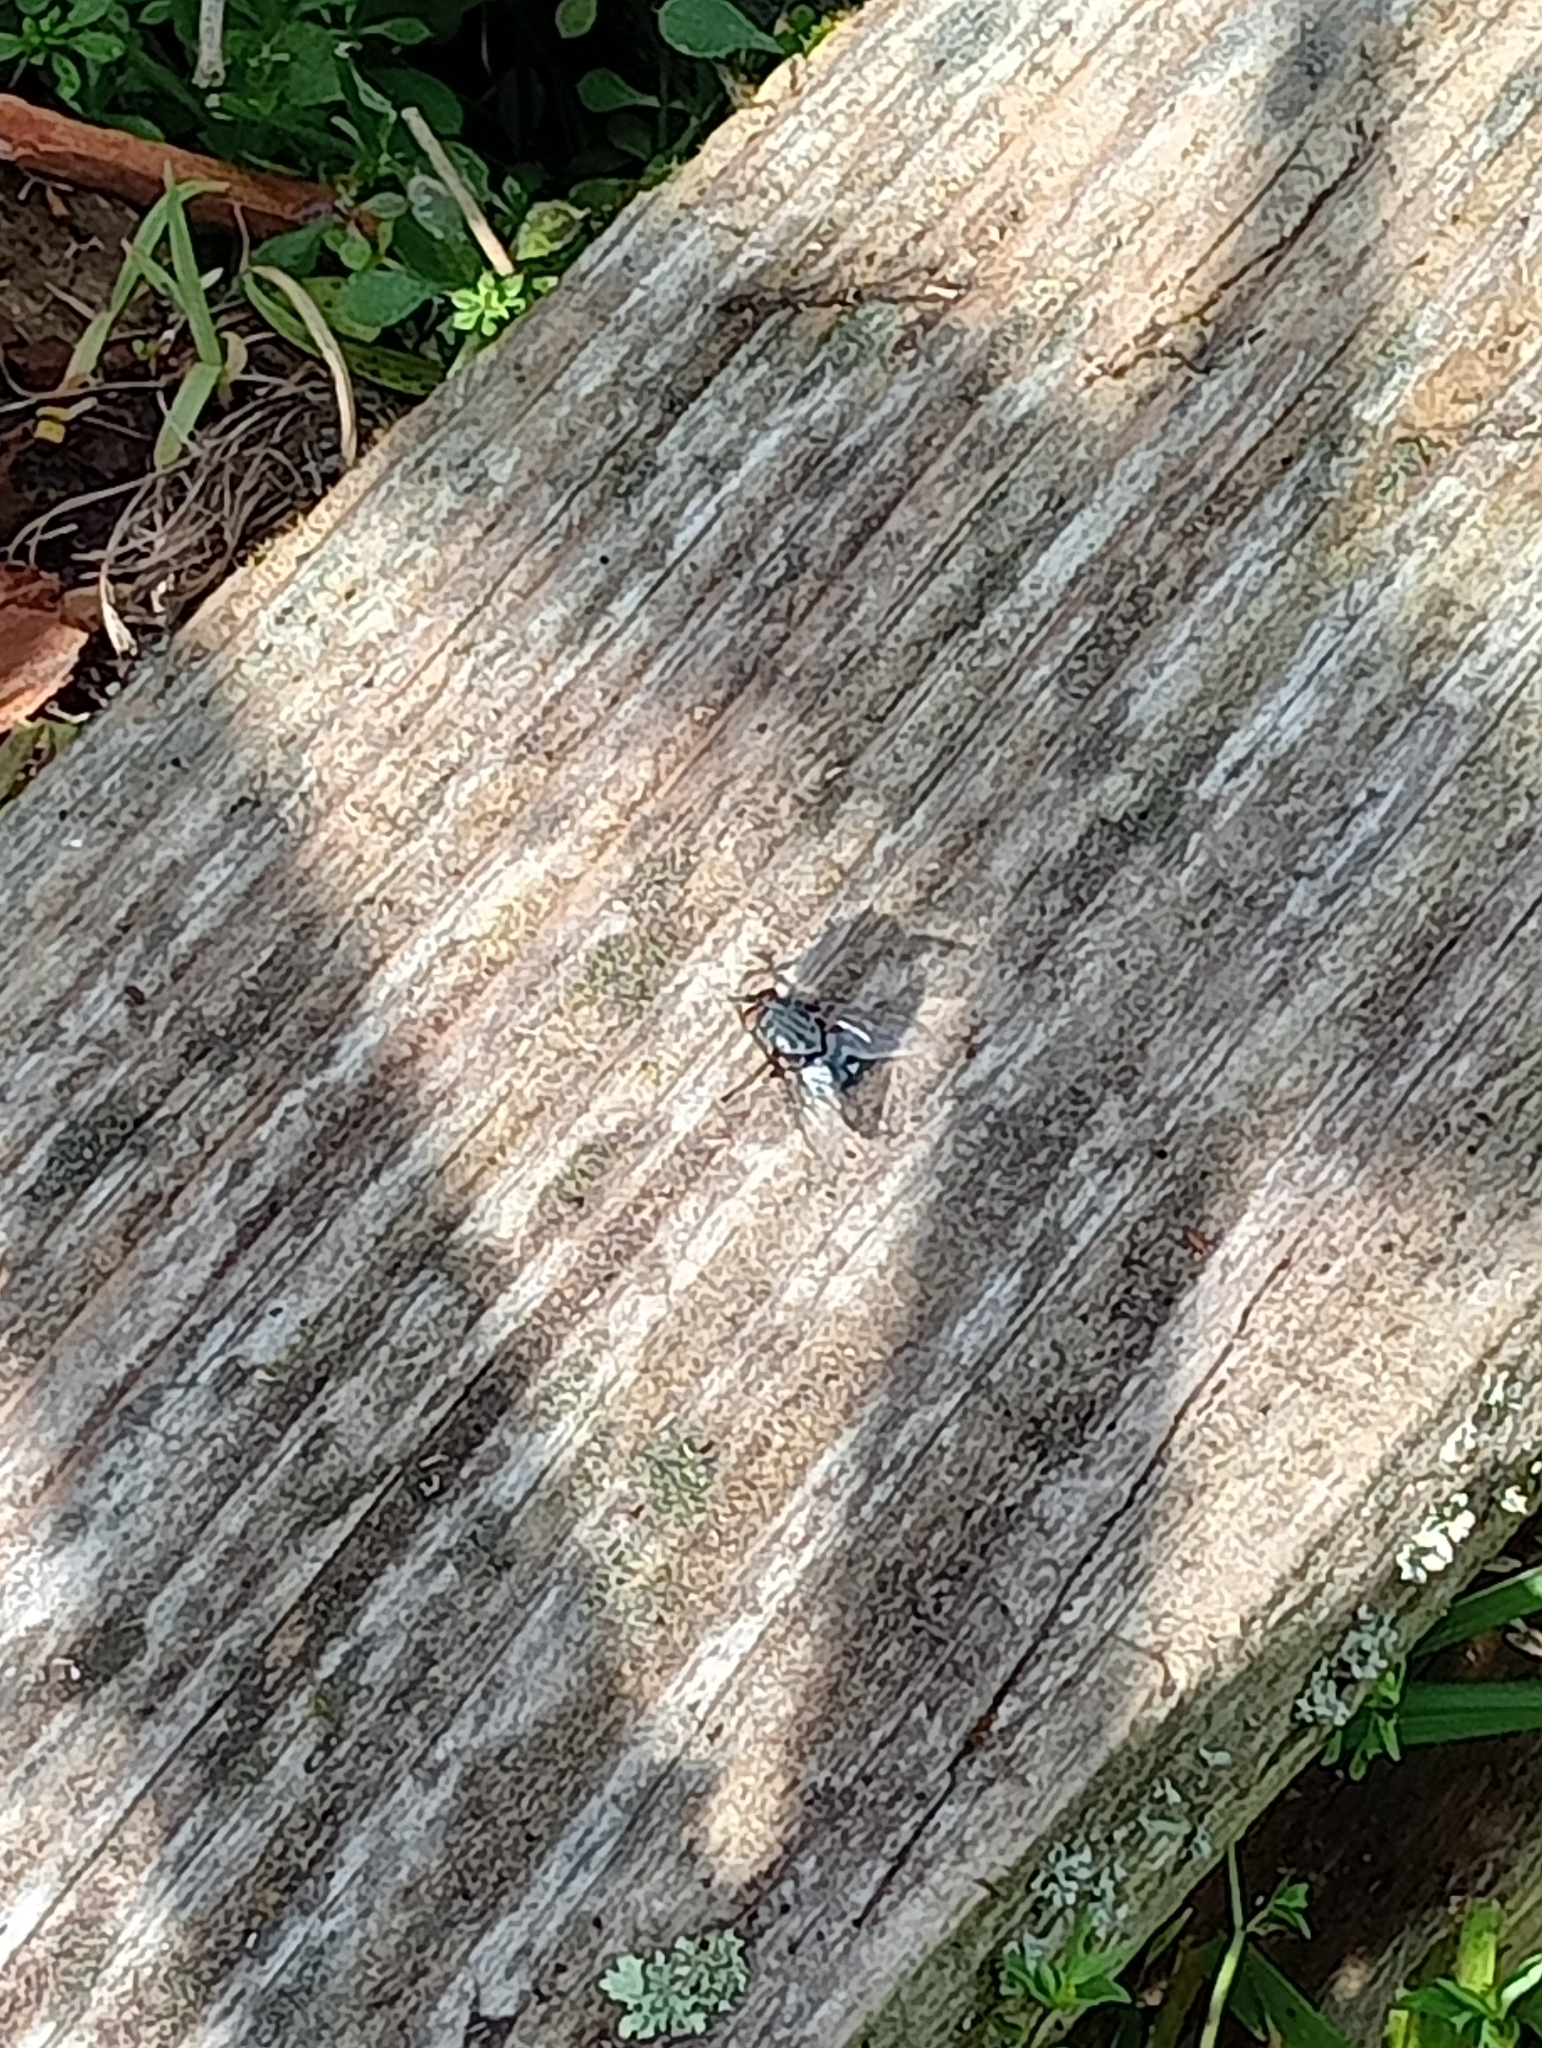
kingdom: Animalia
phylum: Arthropoda
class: Insecta
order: Diptera
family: Calliphoridae
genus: Calliphora
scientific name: Calliphora vicina
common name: Common blow flie
